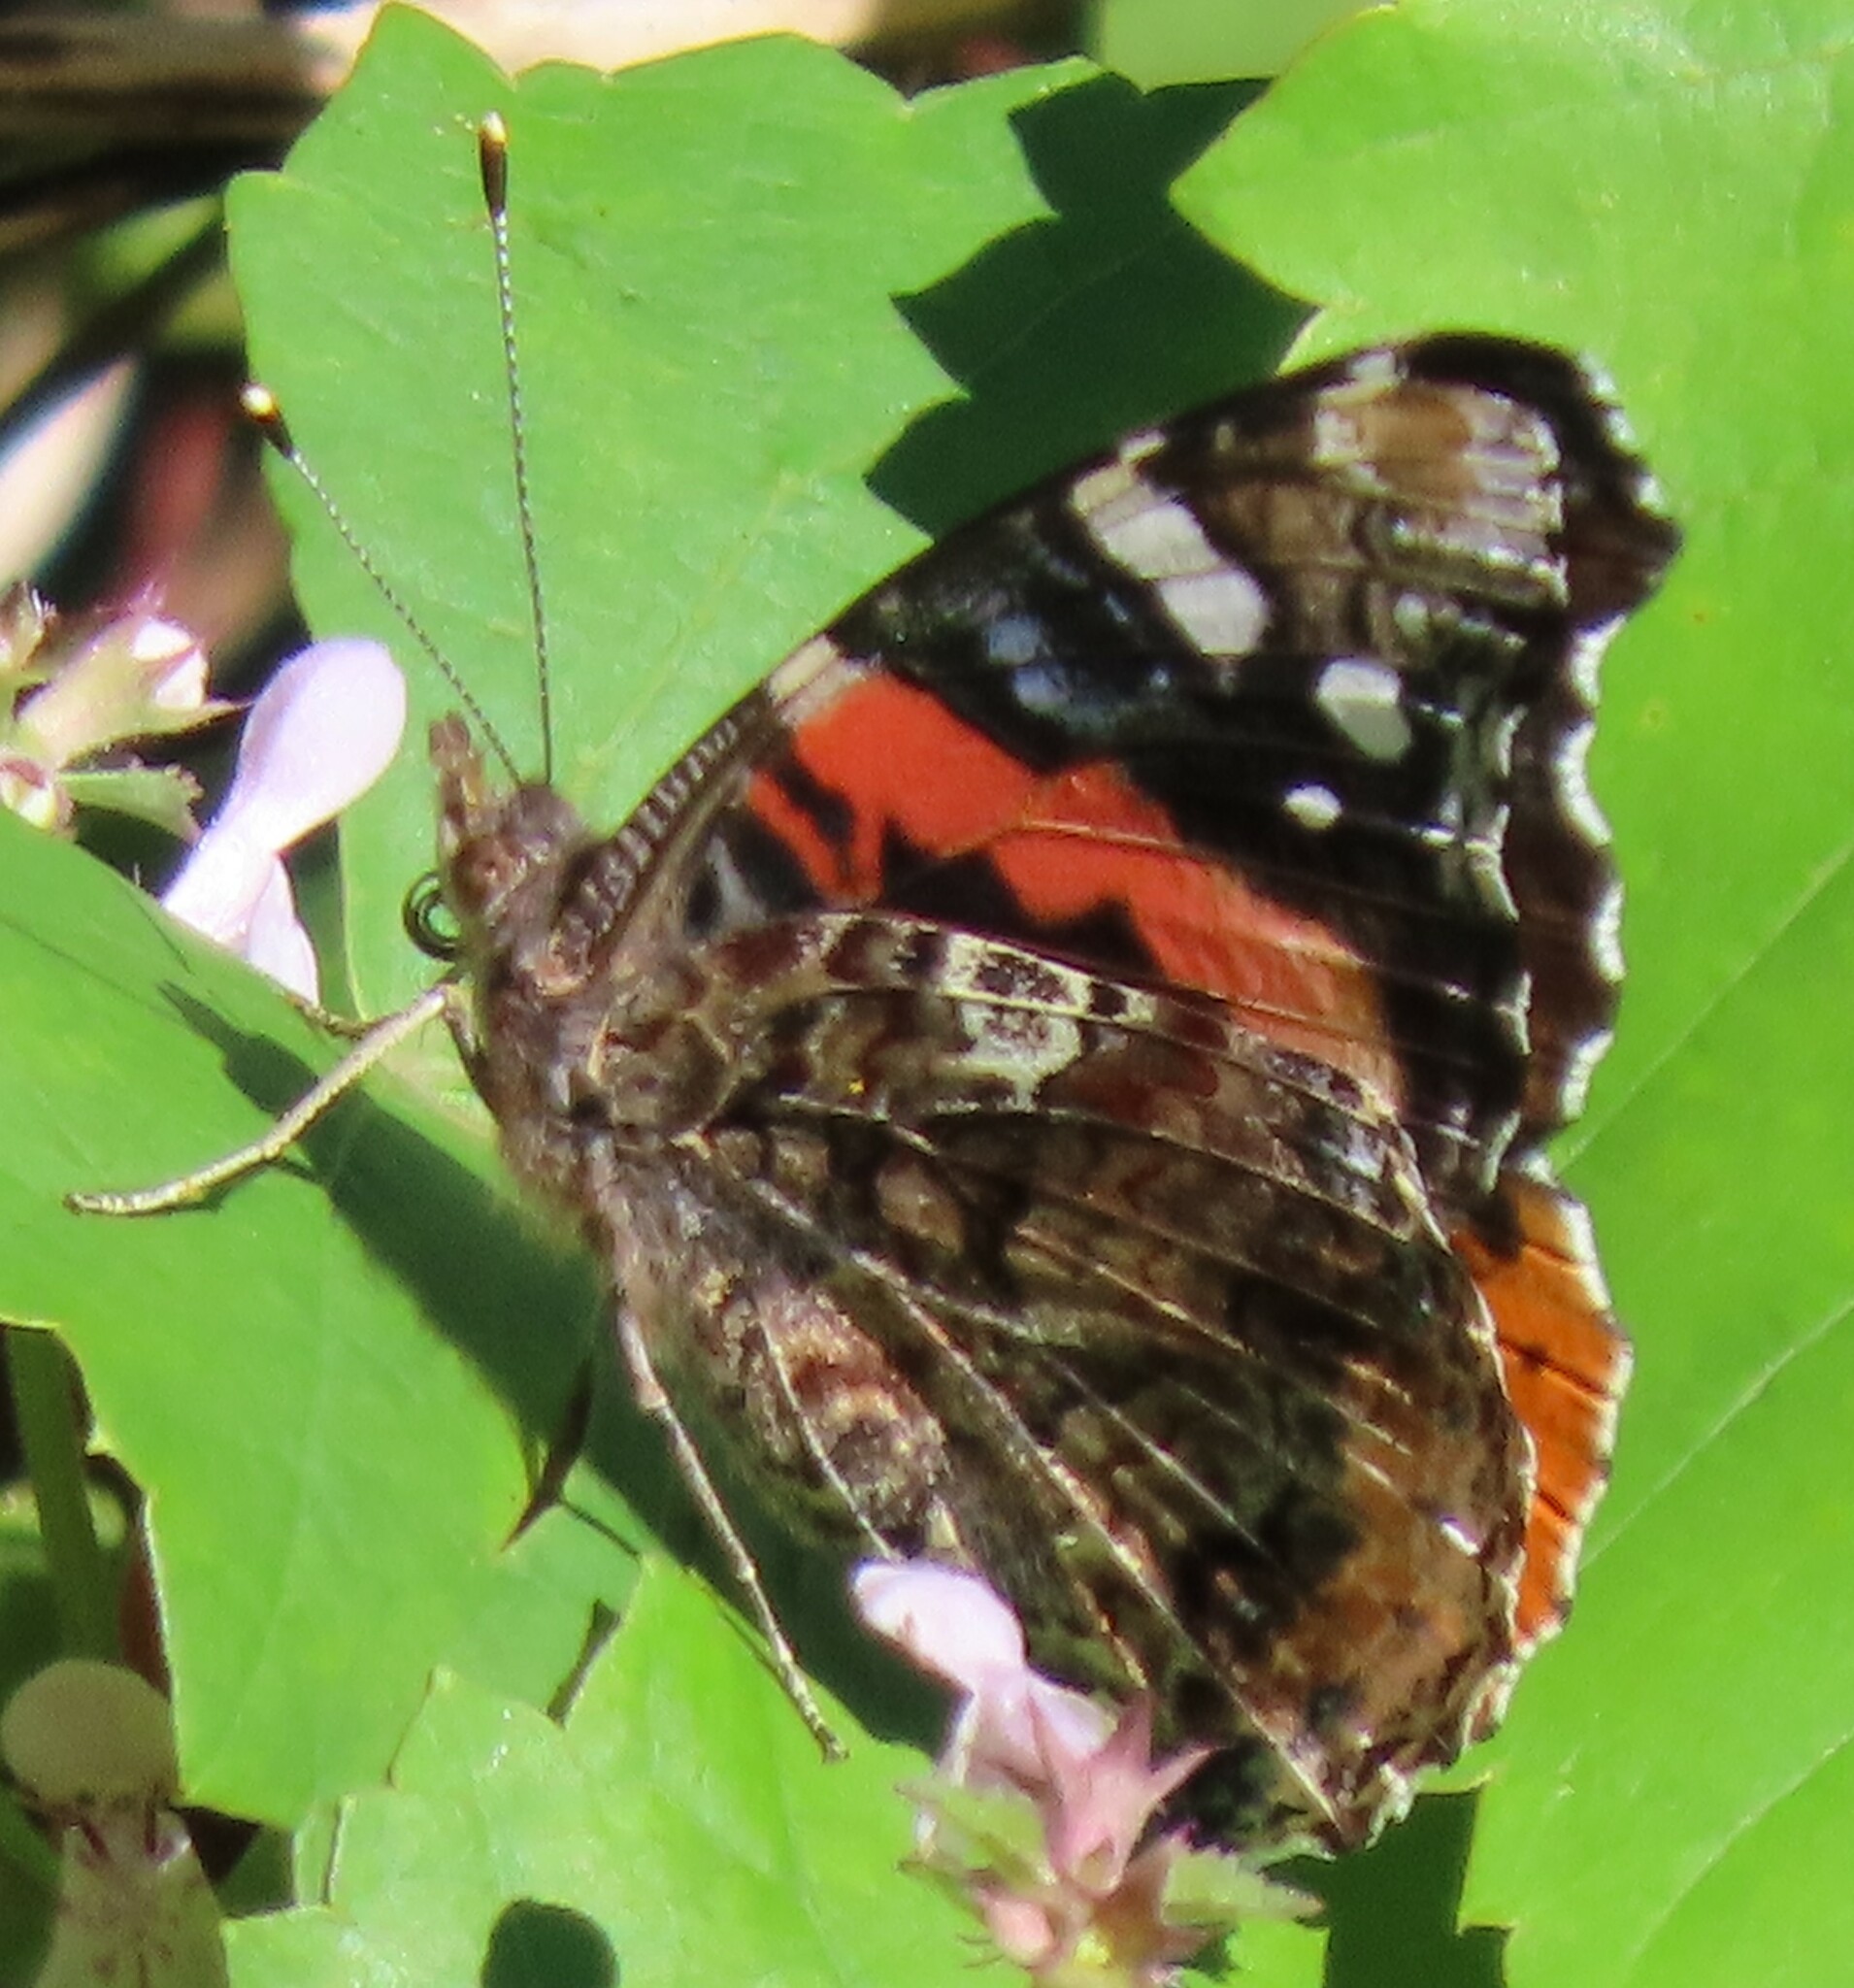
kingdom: Animalia
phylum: Arthropoda
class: Insecta
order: Lepidoptera
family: Nymphalidae
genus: Vanessa
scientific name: Vanessa atalanta
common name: Red admiral
